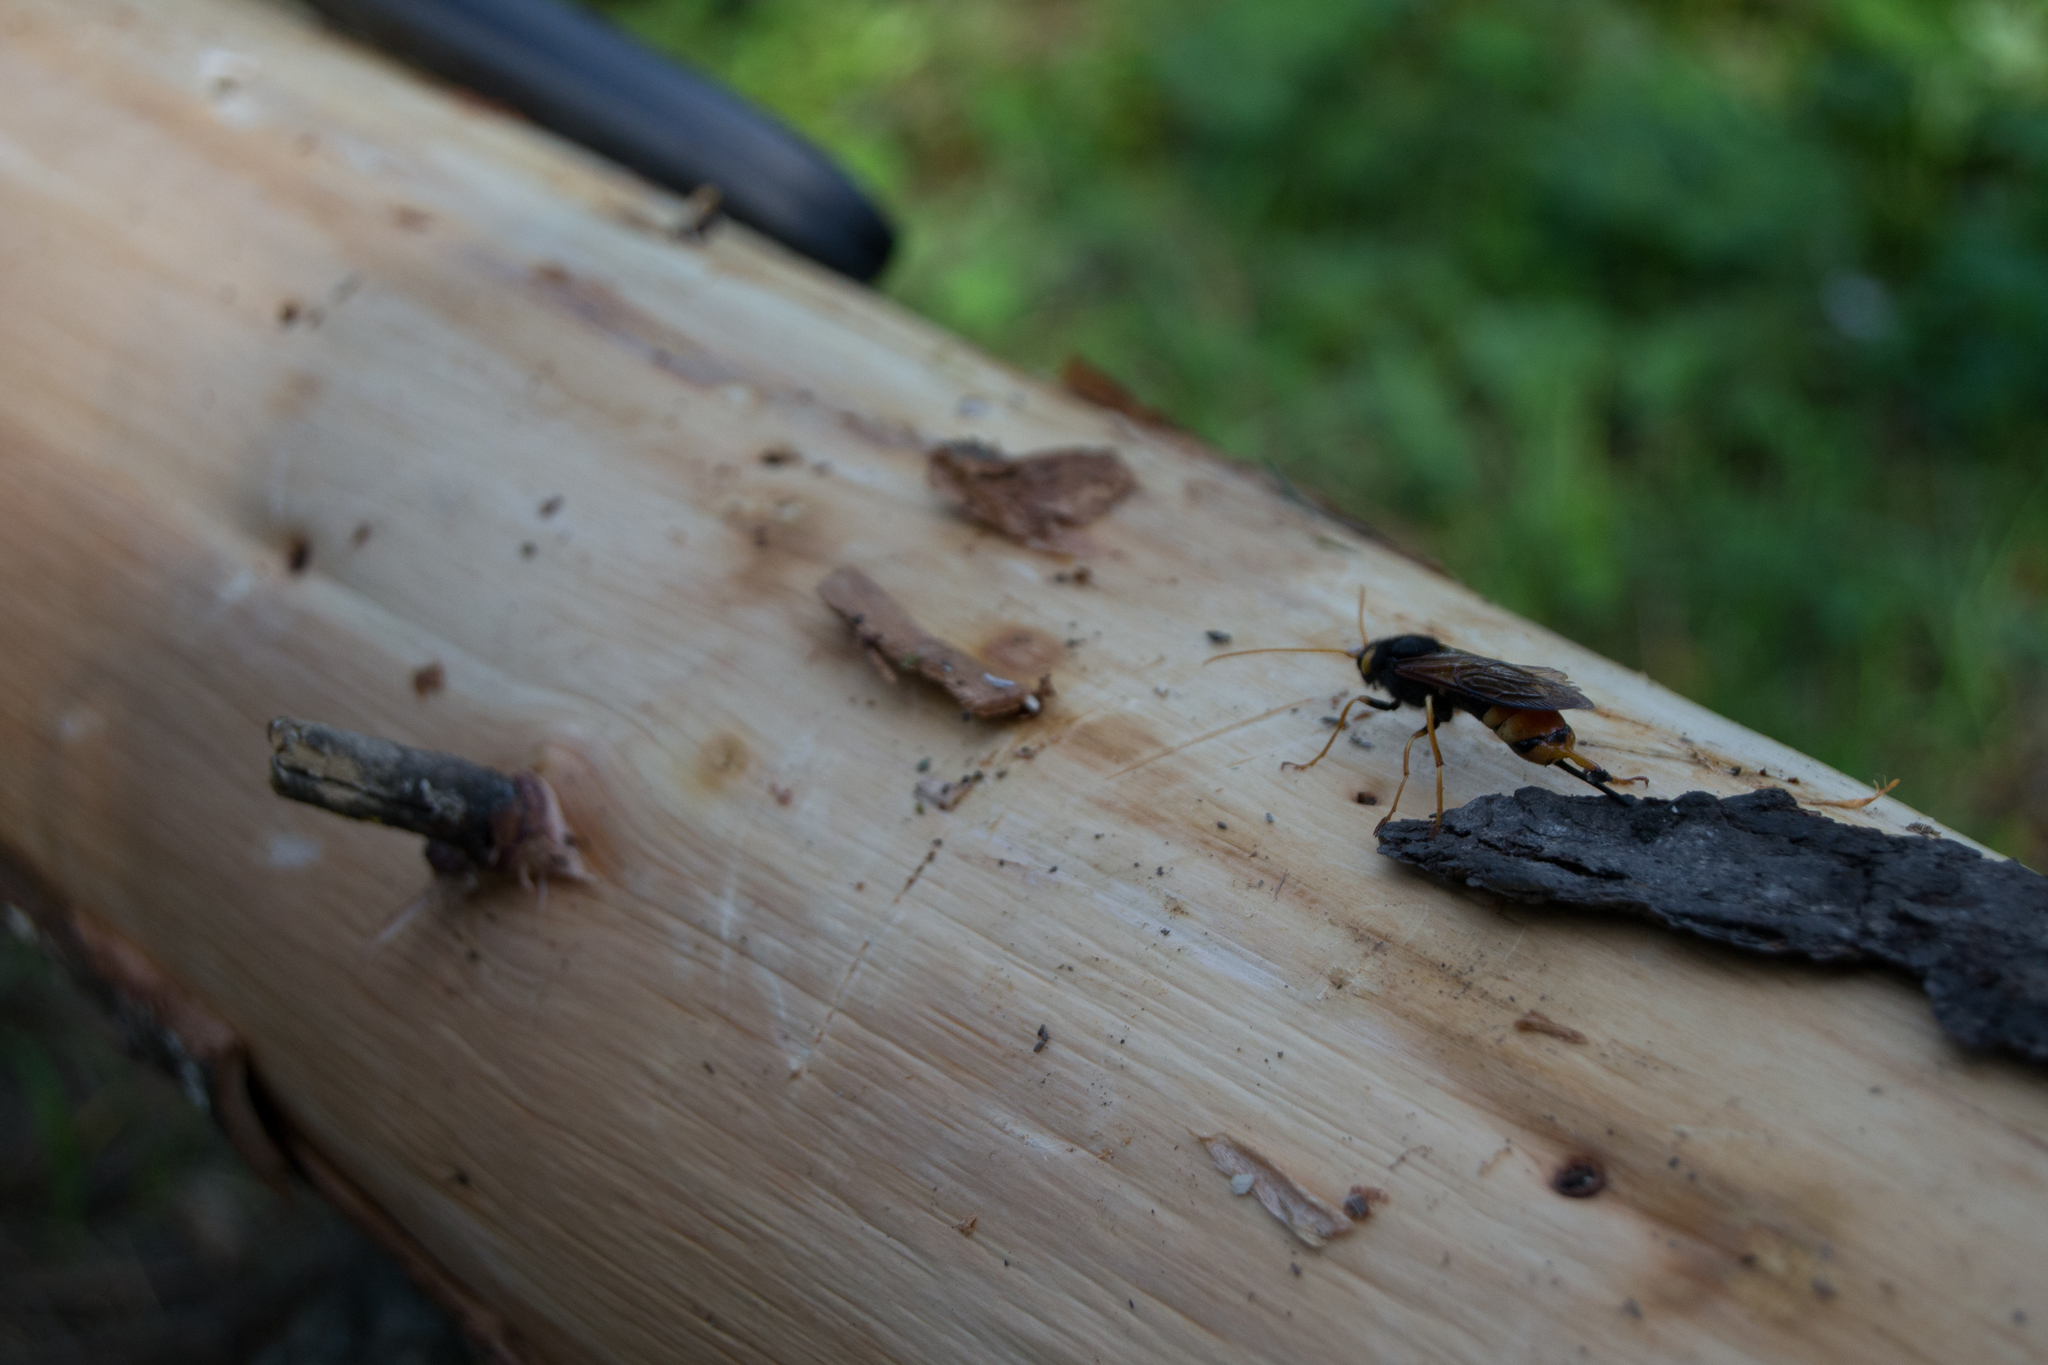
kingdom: Animalia
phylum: Arthropoda
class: Insecta
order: Hymenoptera
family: Siricidae
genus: Urocerus
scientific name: Urocerus gigas
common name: Giant woodwasp
